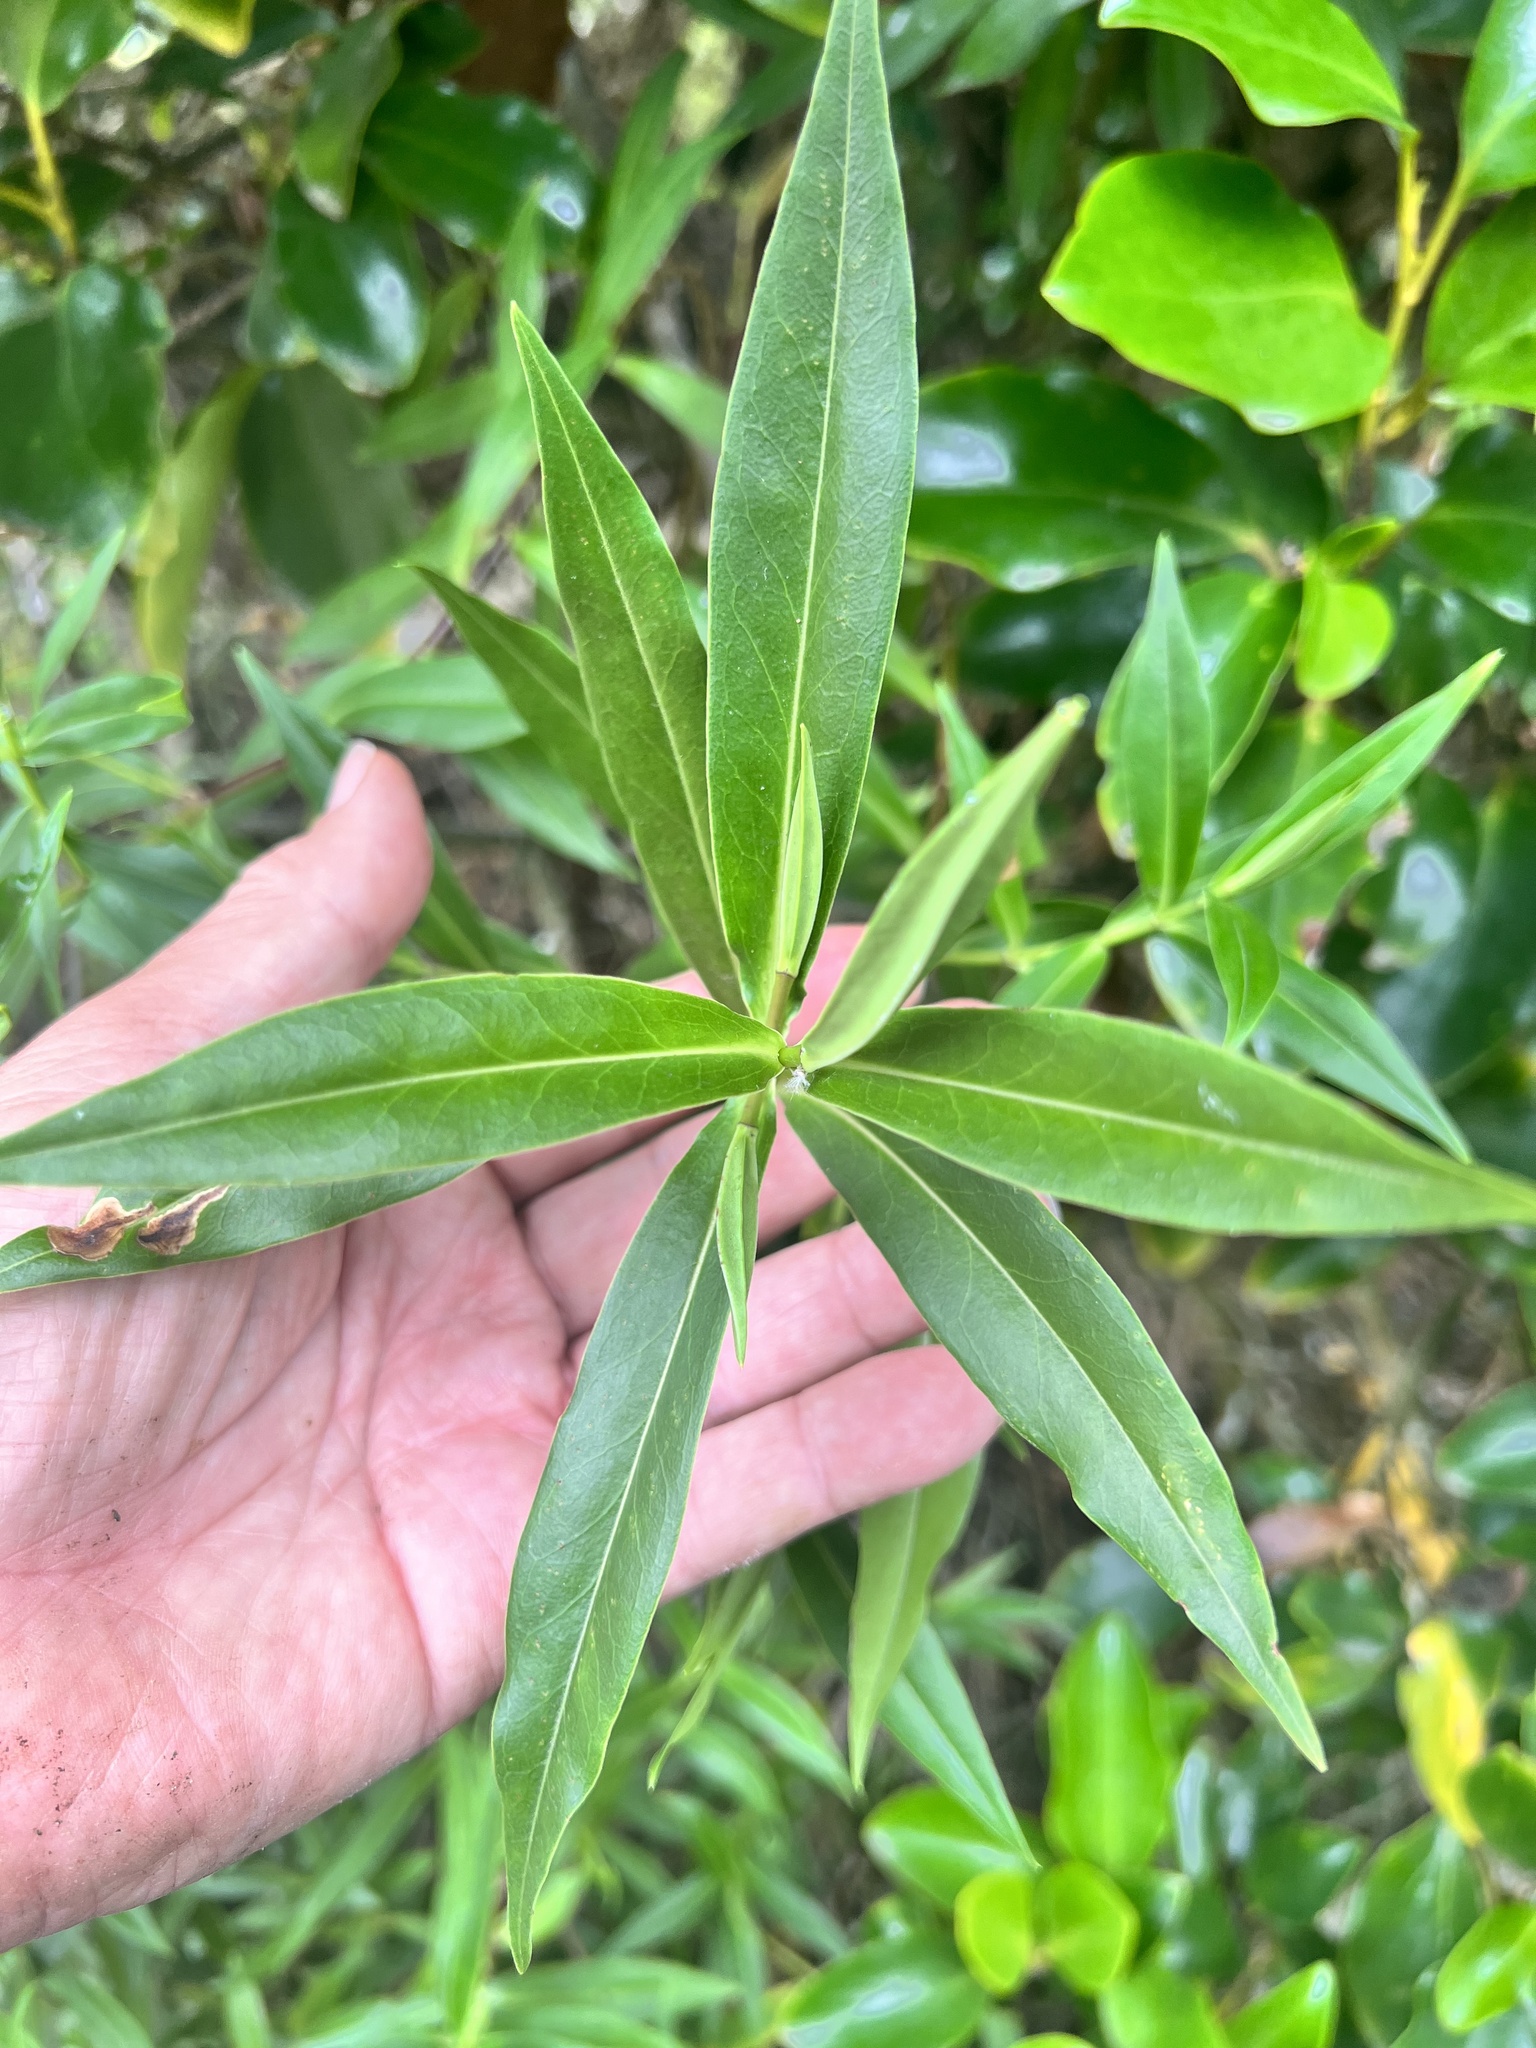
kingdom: Plantae
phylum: Tracheophyta
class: Magnoliopsida
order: Lamiales
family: Plantaginaceae
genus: Veronica
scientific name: Veronica salicifolia
